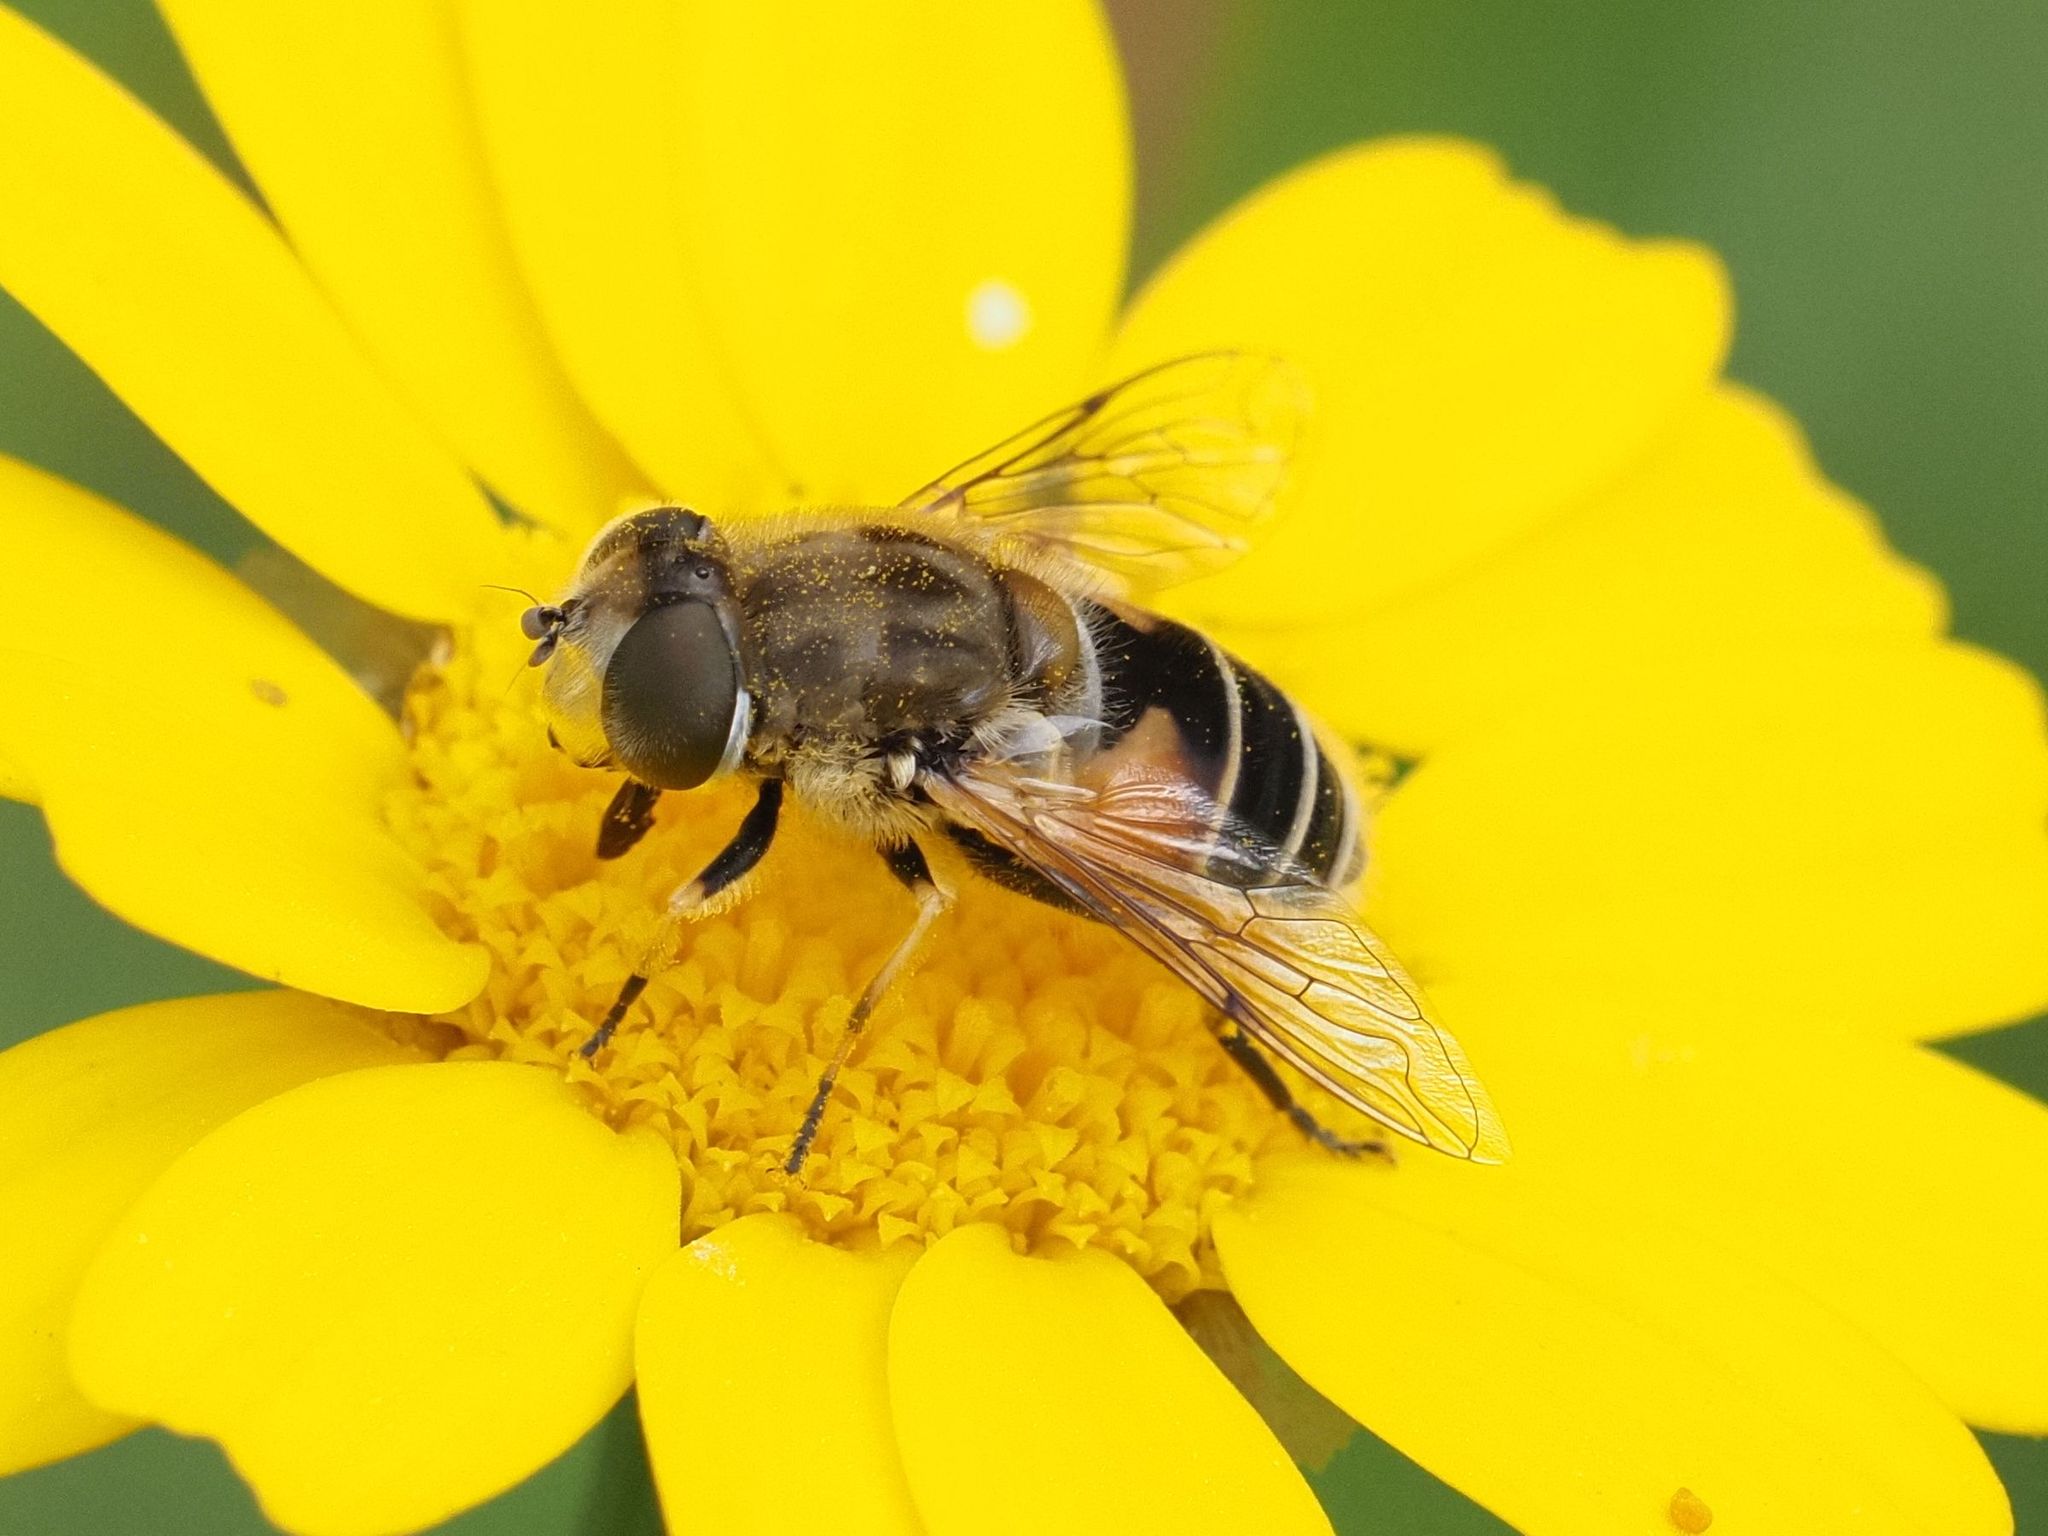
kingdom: Animalia
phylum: Arthropoda
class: Insecta
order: Diptera
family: Syrphidae
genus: Eristalis
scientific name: Eristalis arbustorum
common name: Hover fly
